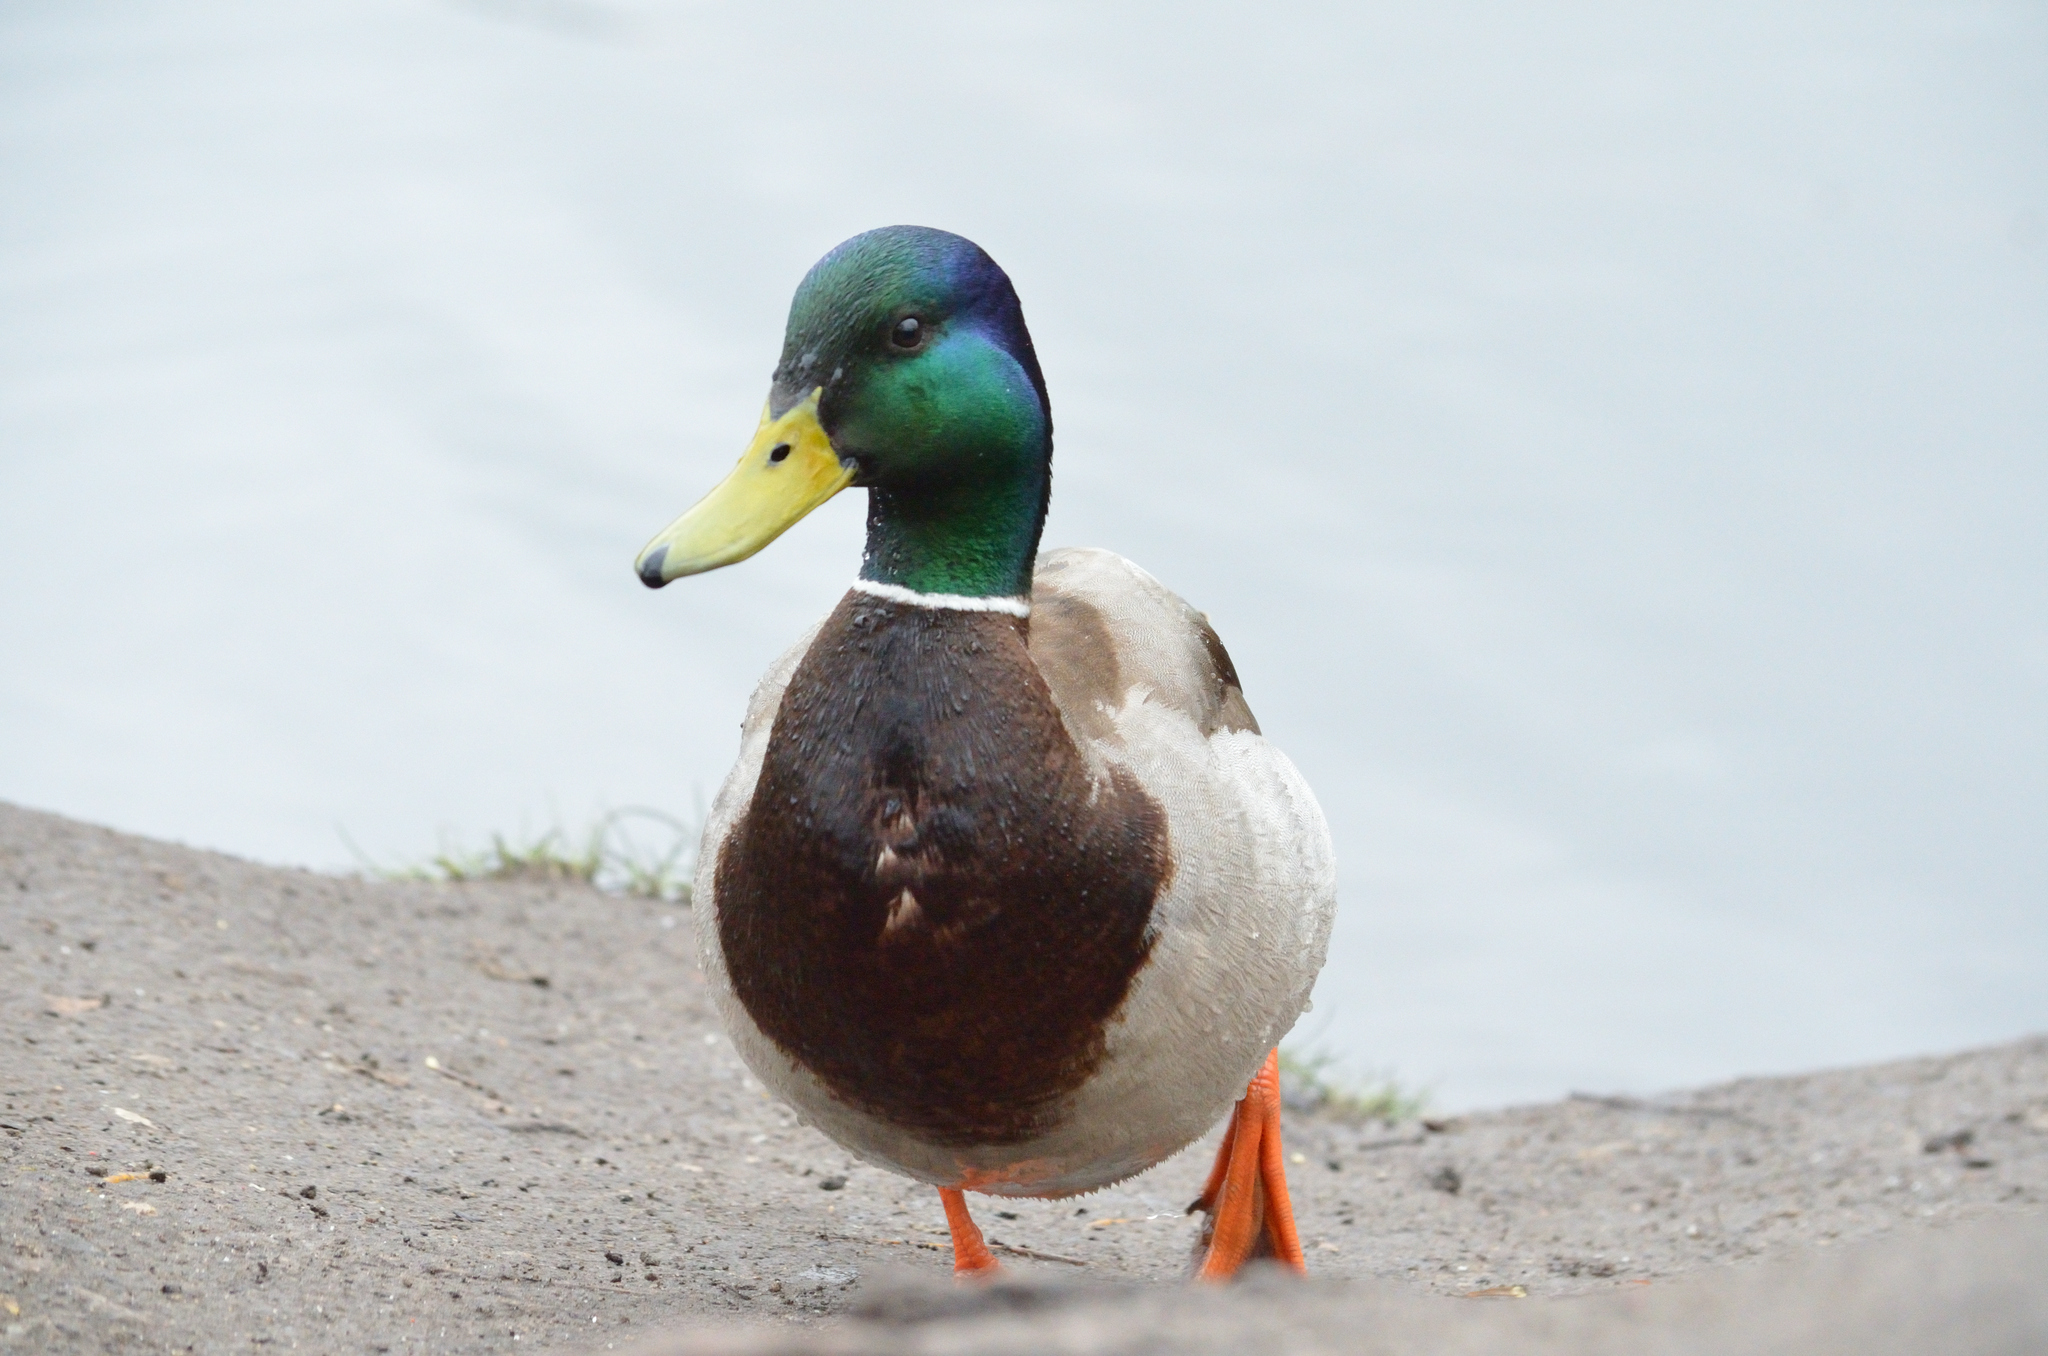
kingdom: Animalia
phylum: Chordata
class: Aves
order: Anseriformes
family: Anatidae
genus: Anas
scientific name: Anas platyrhynchos
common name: Mallard
